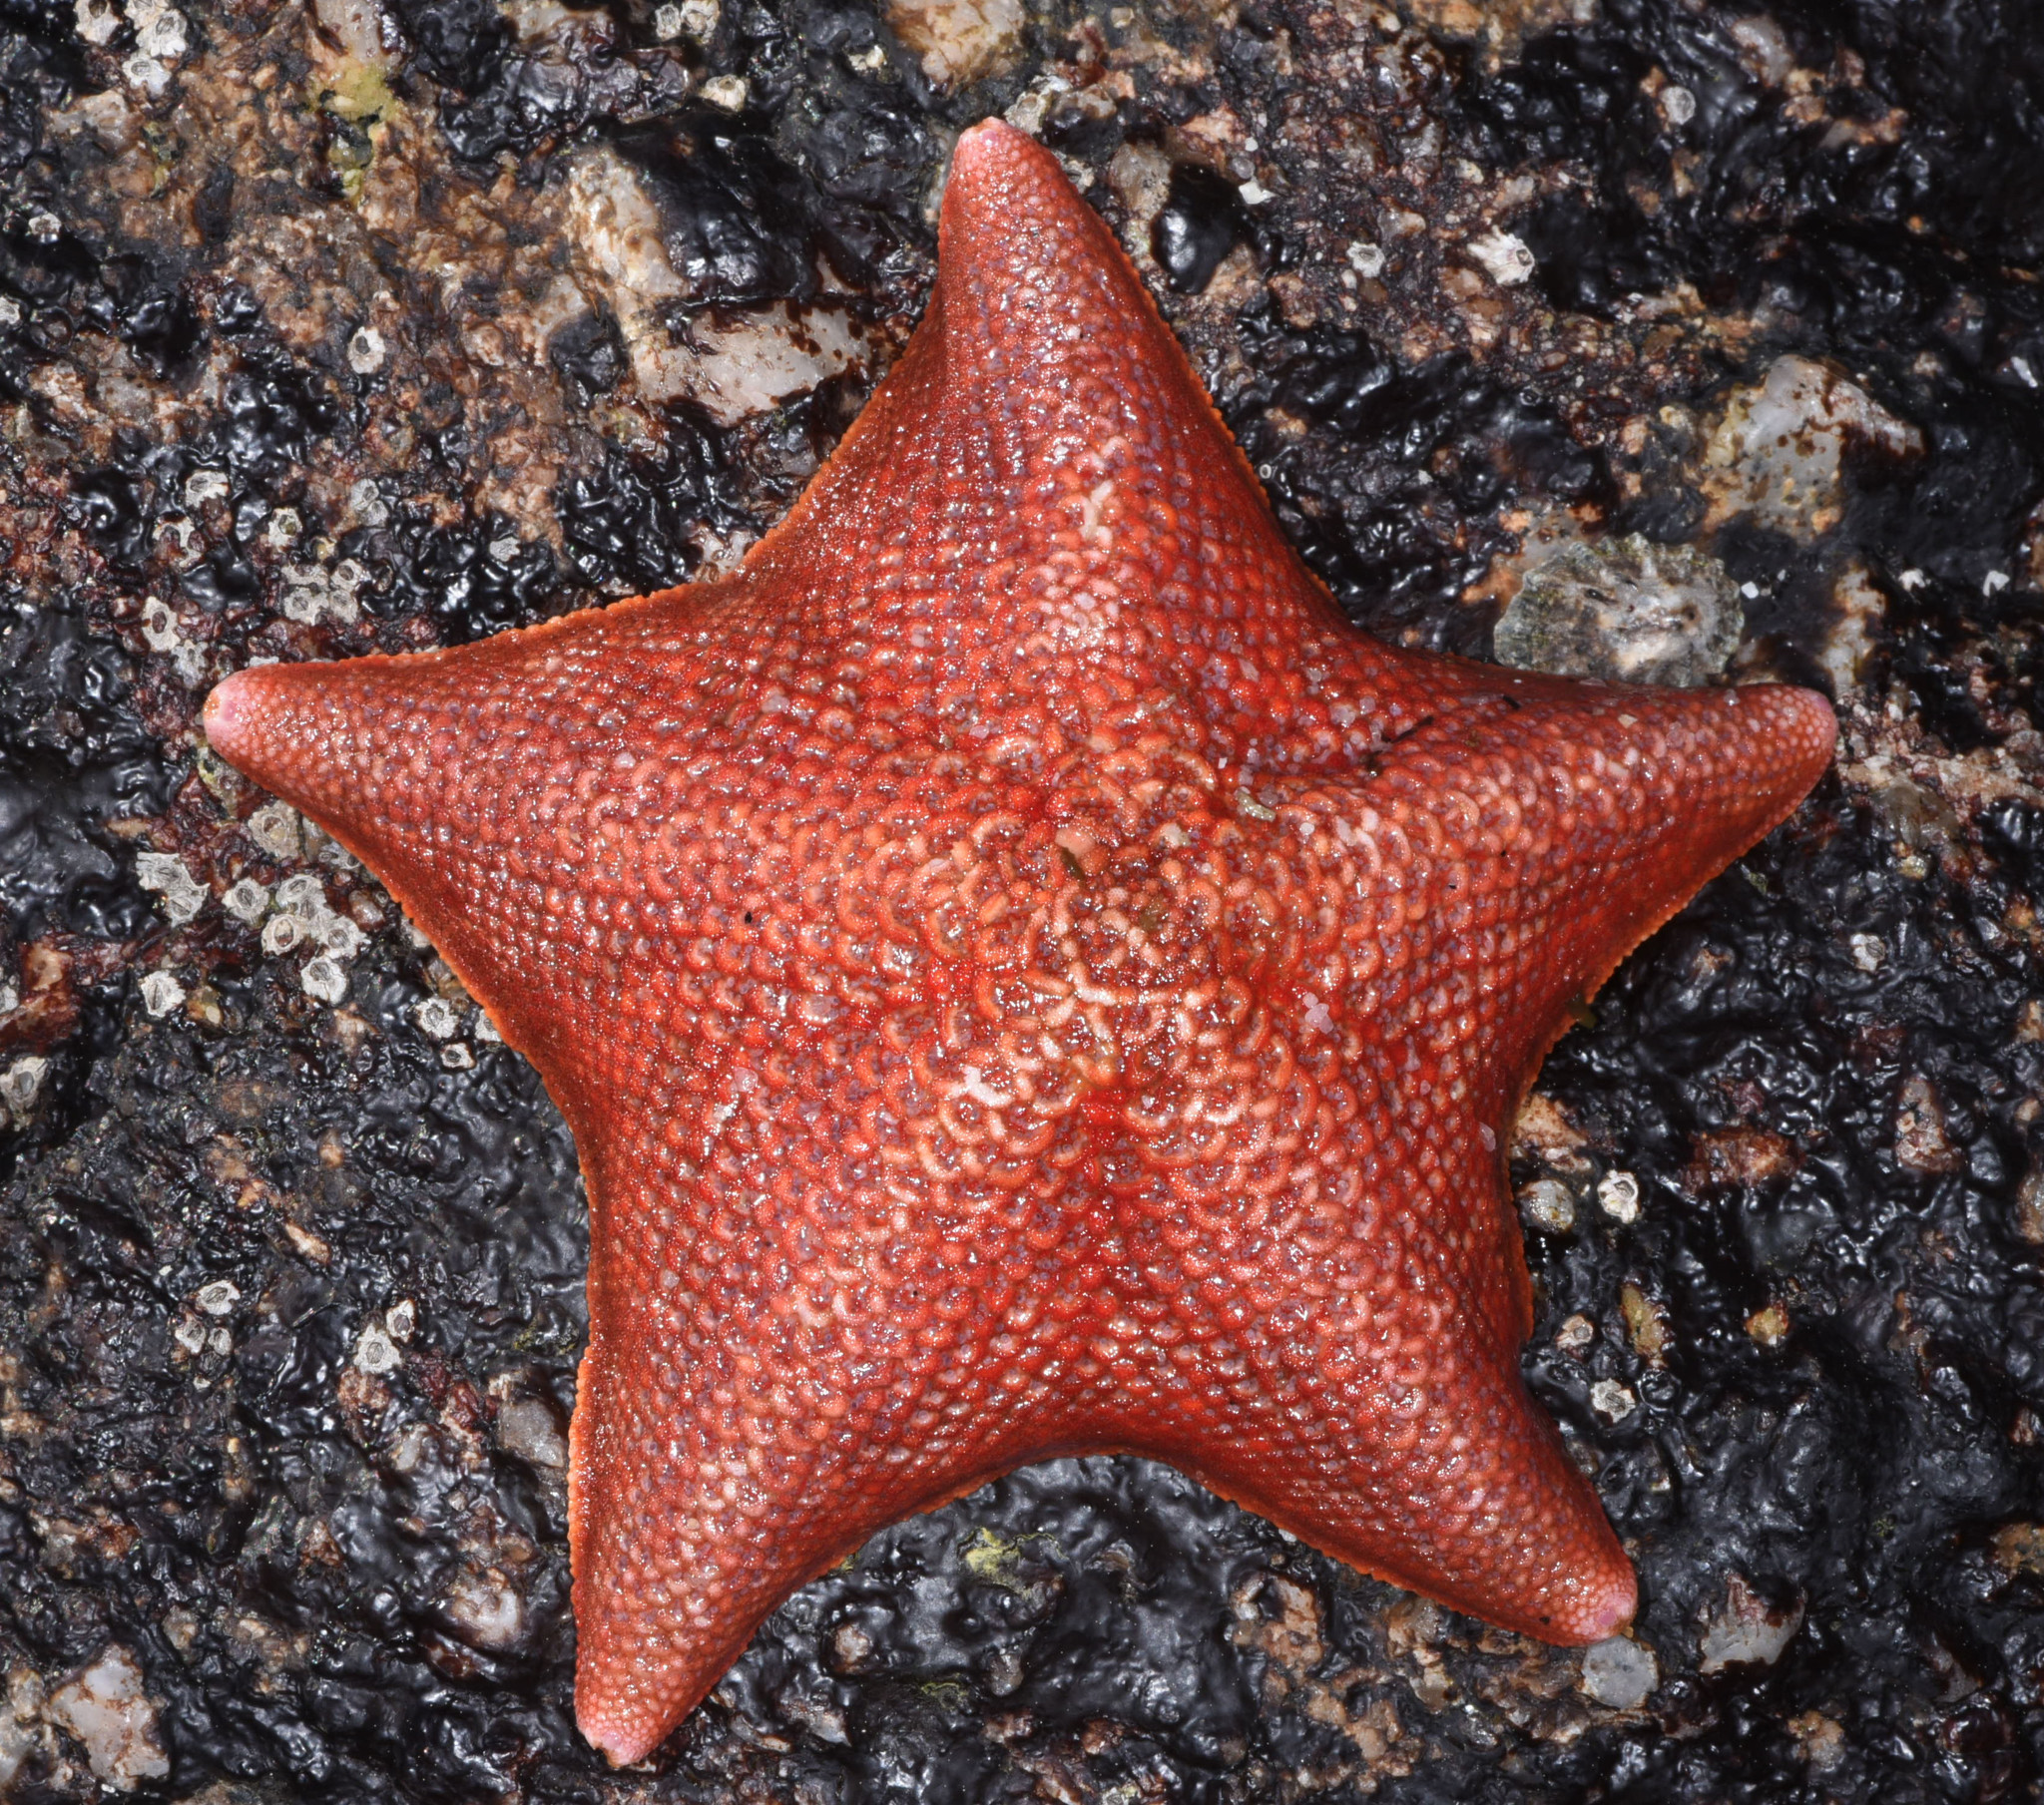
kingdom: Animalia
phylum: Echinodermata
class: Asteroidea
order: Valvatida
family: Asterinidae
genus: Patiria
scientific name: Patiria miniata
